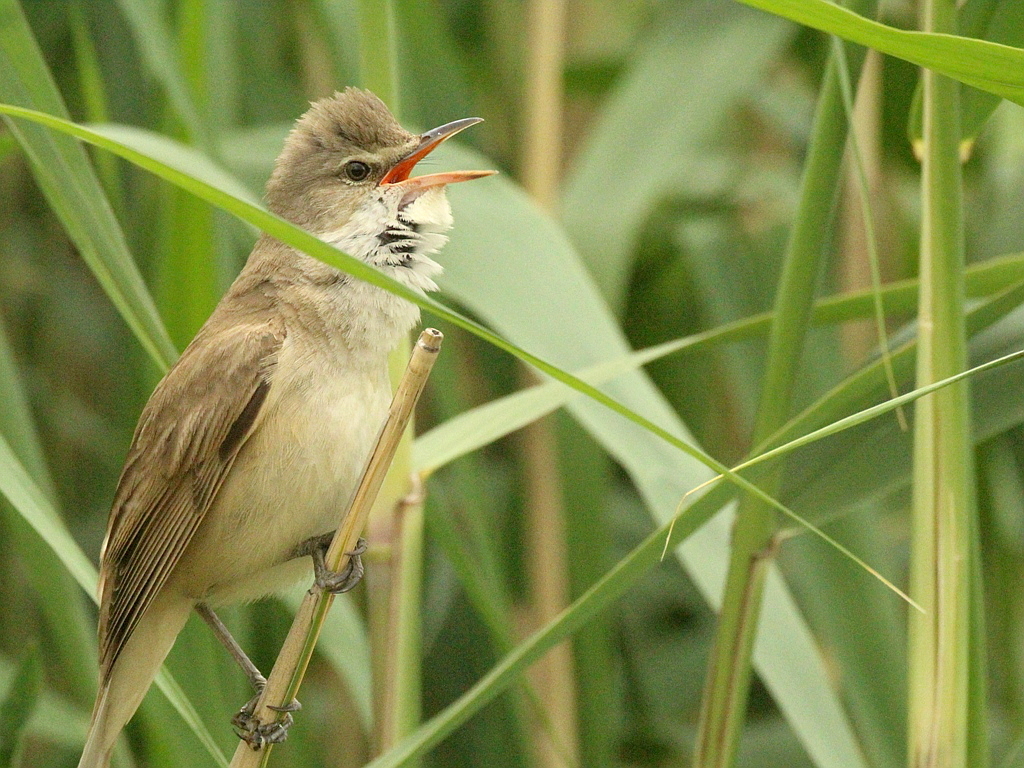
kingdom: Animalia
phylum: Chordata
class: Aves
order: Passeriformes
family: Acrocephalidae
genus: Acrocephalus
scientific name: Acrocephalus arundinaceus
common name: Great reed warbler
